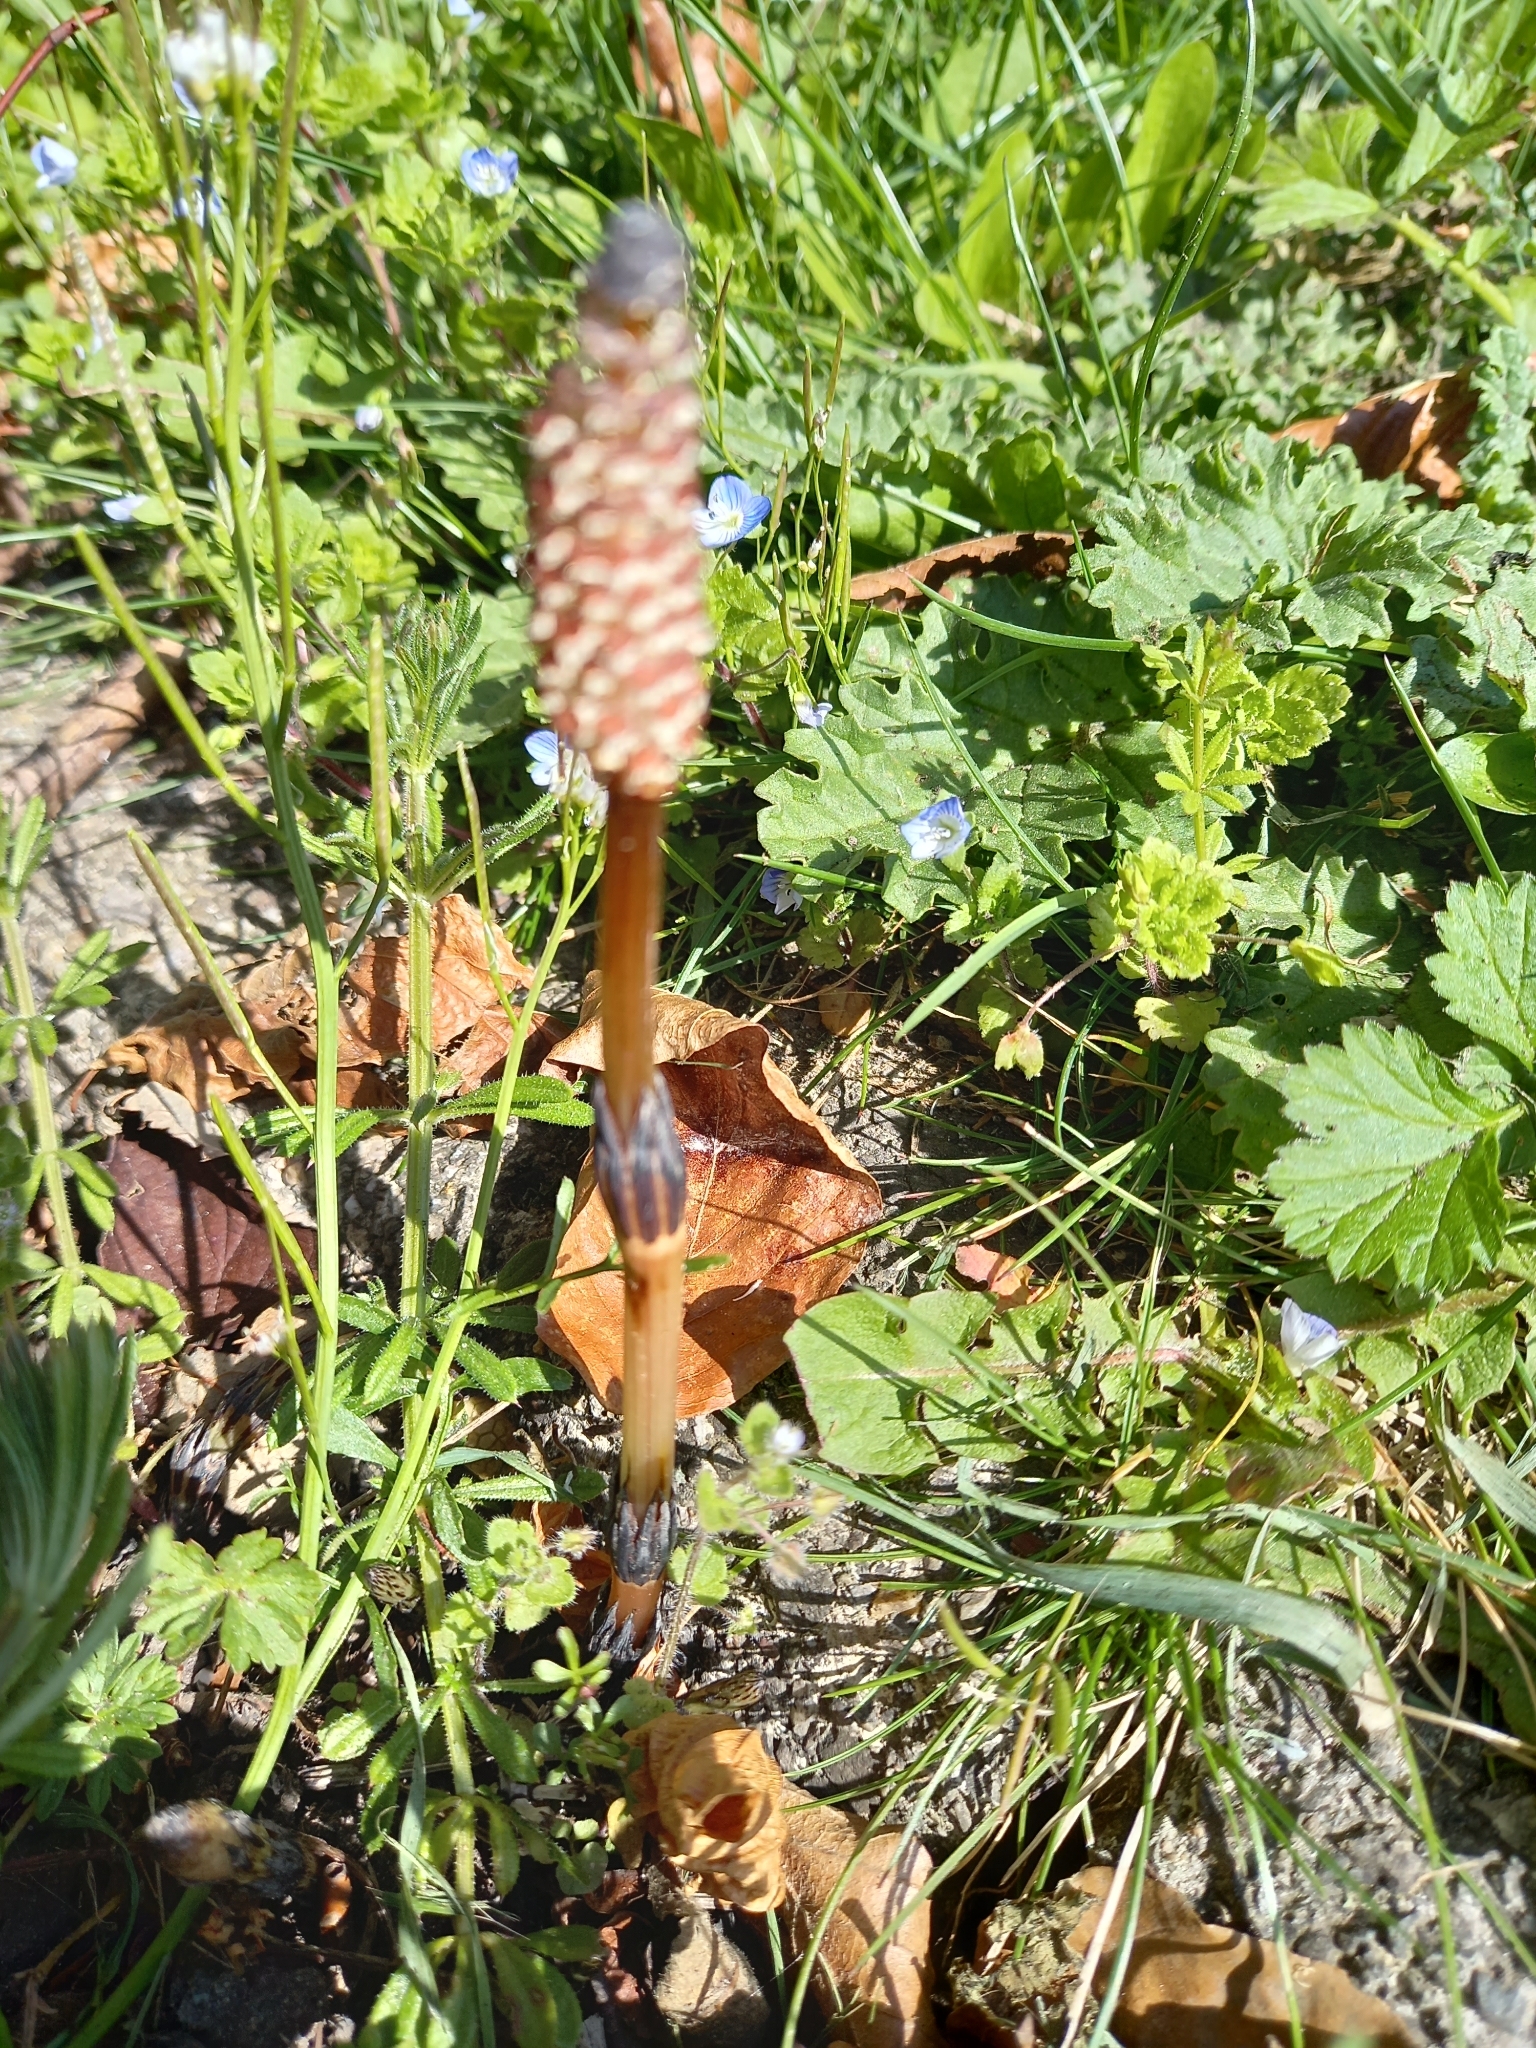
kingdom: Plantae
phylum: Tracheophyta
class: Polypodiopsida
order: Equisetales
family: Equisetaceae
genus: Equisetum
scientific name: Equisetum arvense
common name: Field horsetail
